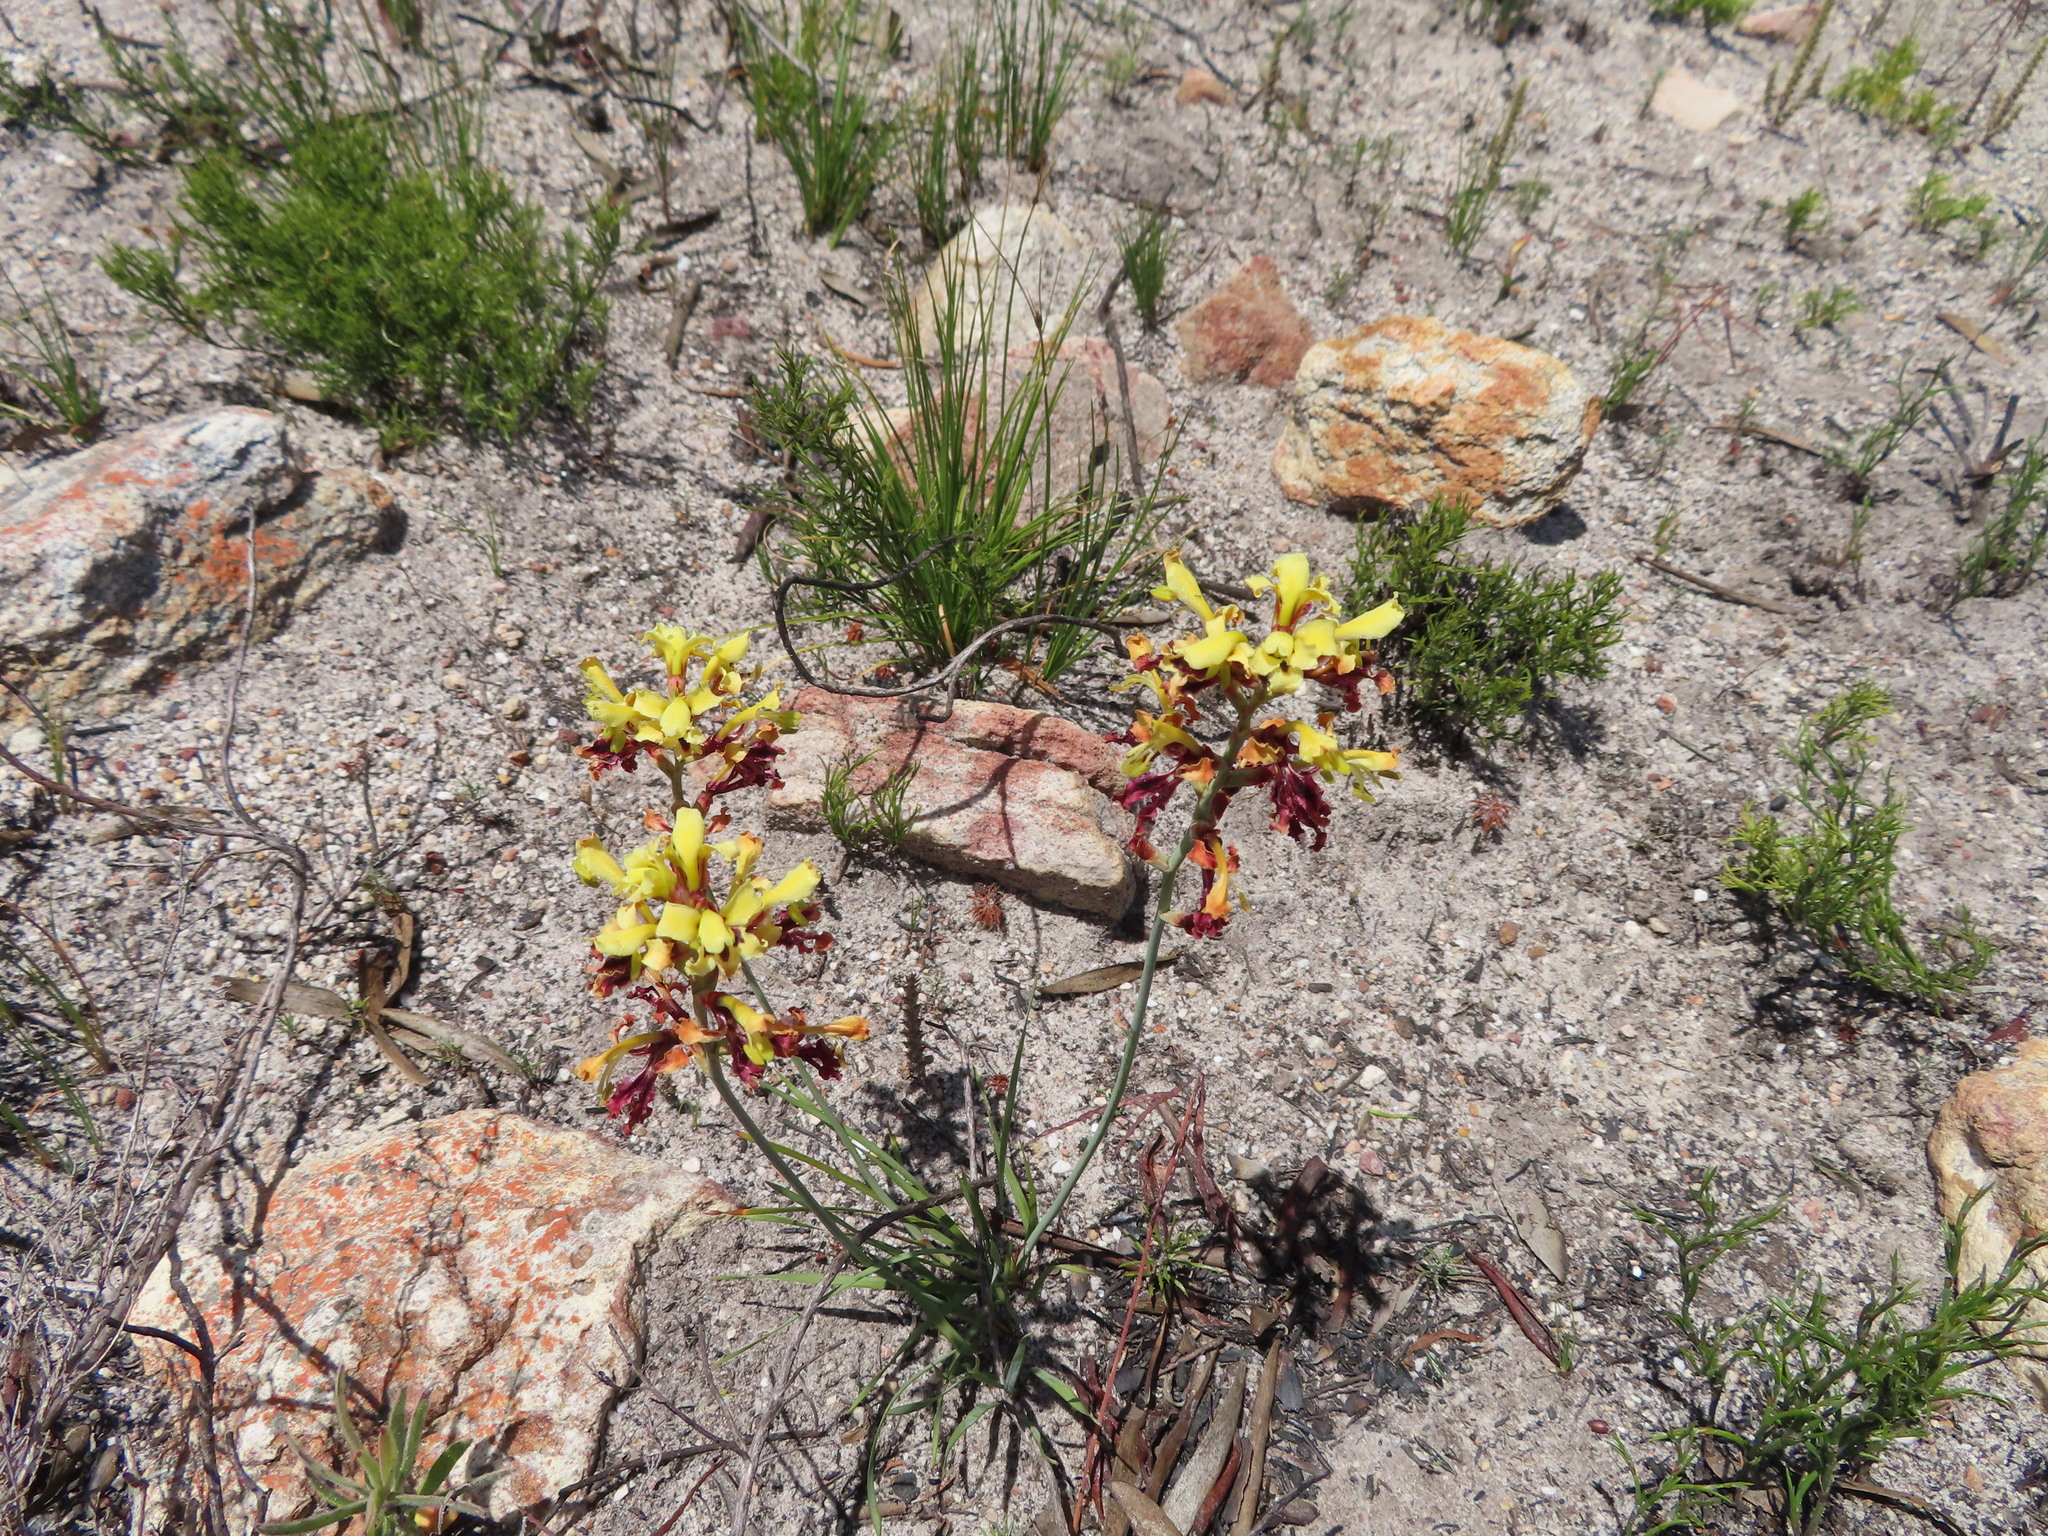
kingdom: Plantae
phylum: Tracheophyta
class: Liliopsida
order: Asparagales
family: Iridaceae
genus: Tritoniopsis
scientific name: Tritoniopsis parviflora
